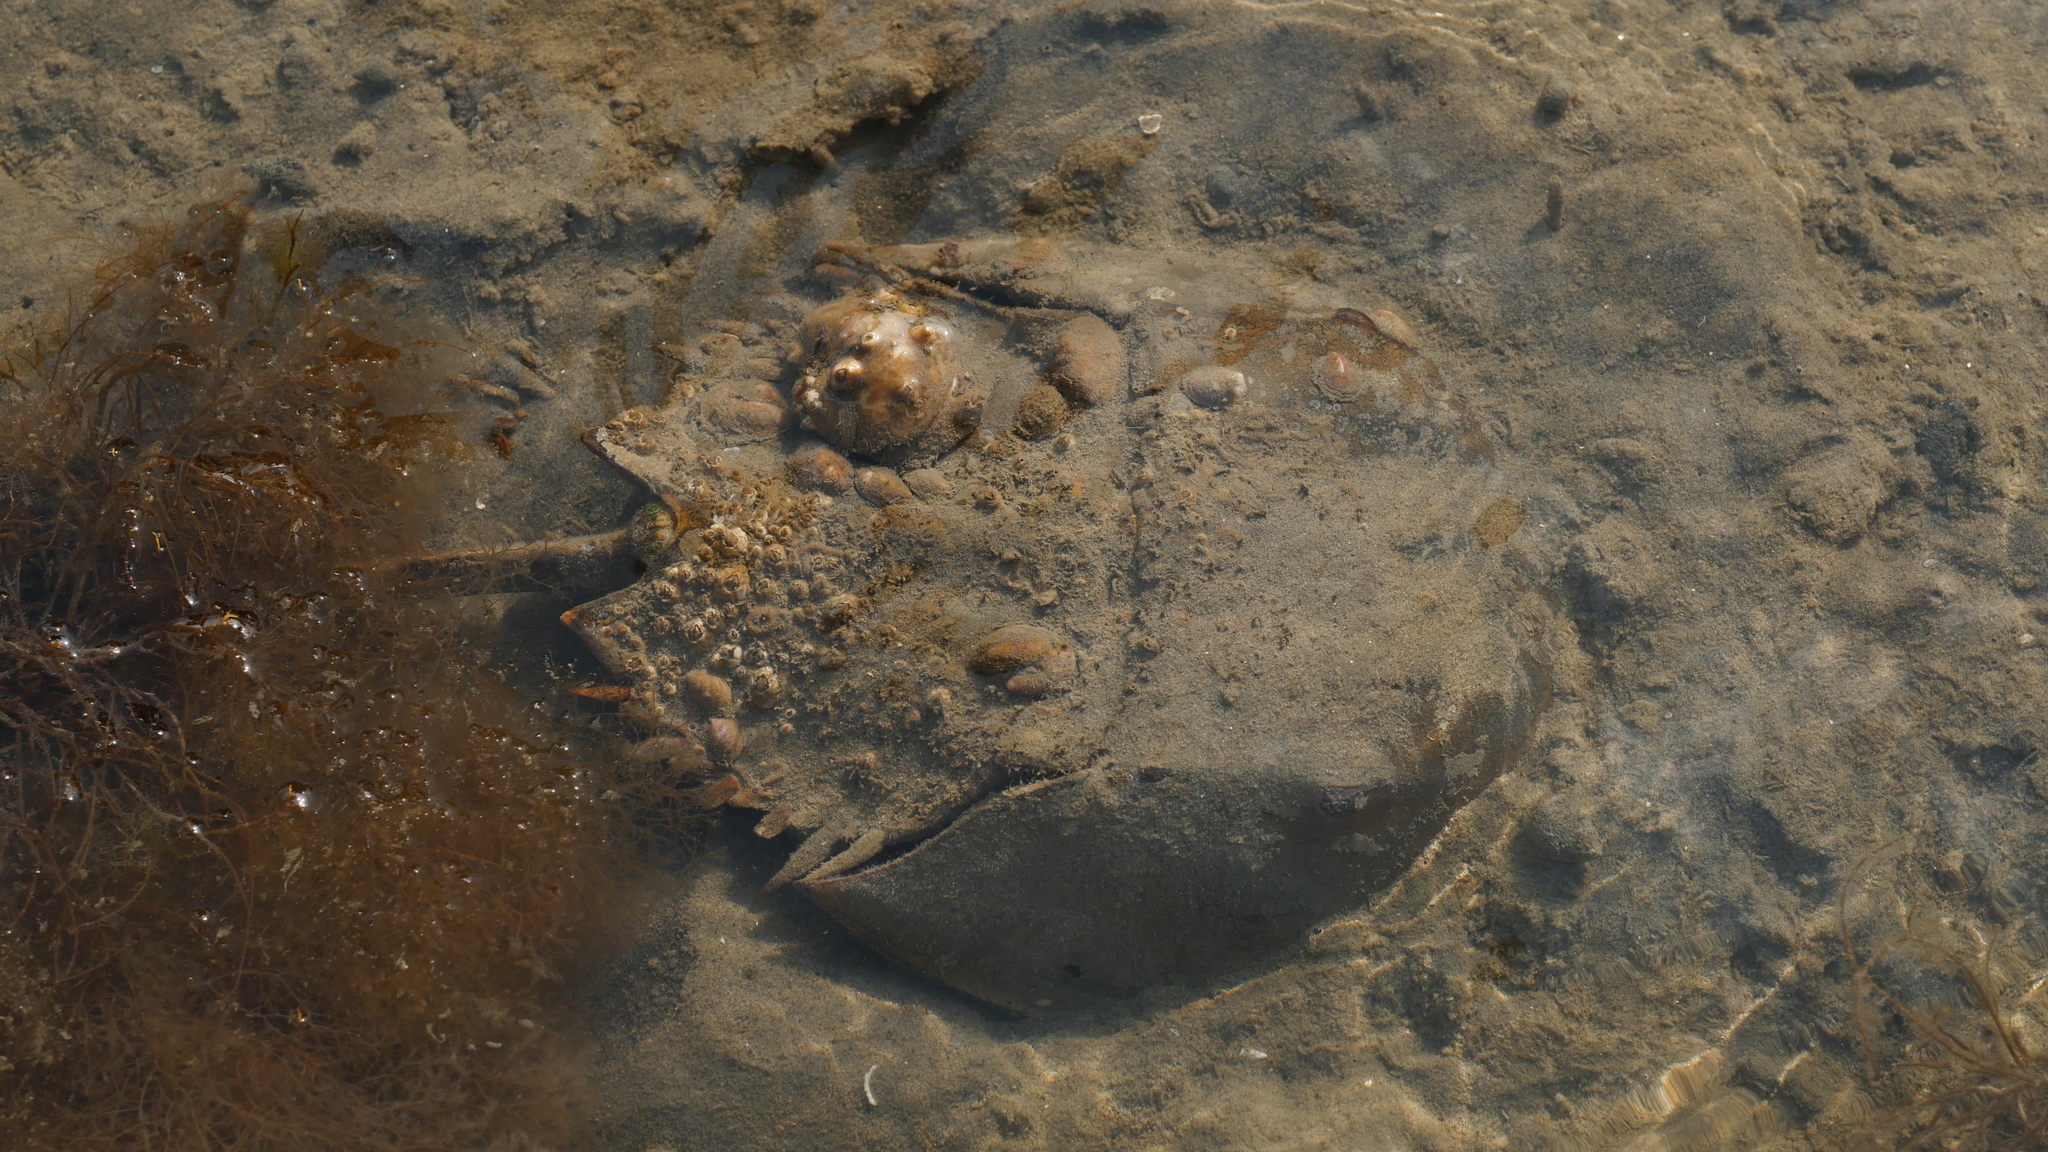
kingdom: Animalia
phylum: Arthropoda
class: Merostomata
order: Xiphosurida
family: Limulidae
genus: Limulus
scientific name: Limulus polyphemus
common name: Horseshoe crab
